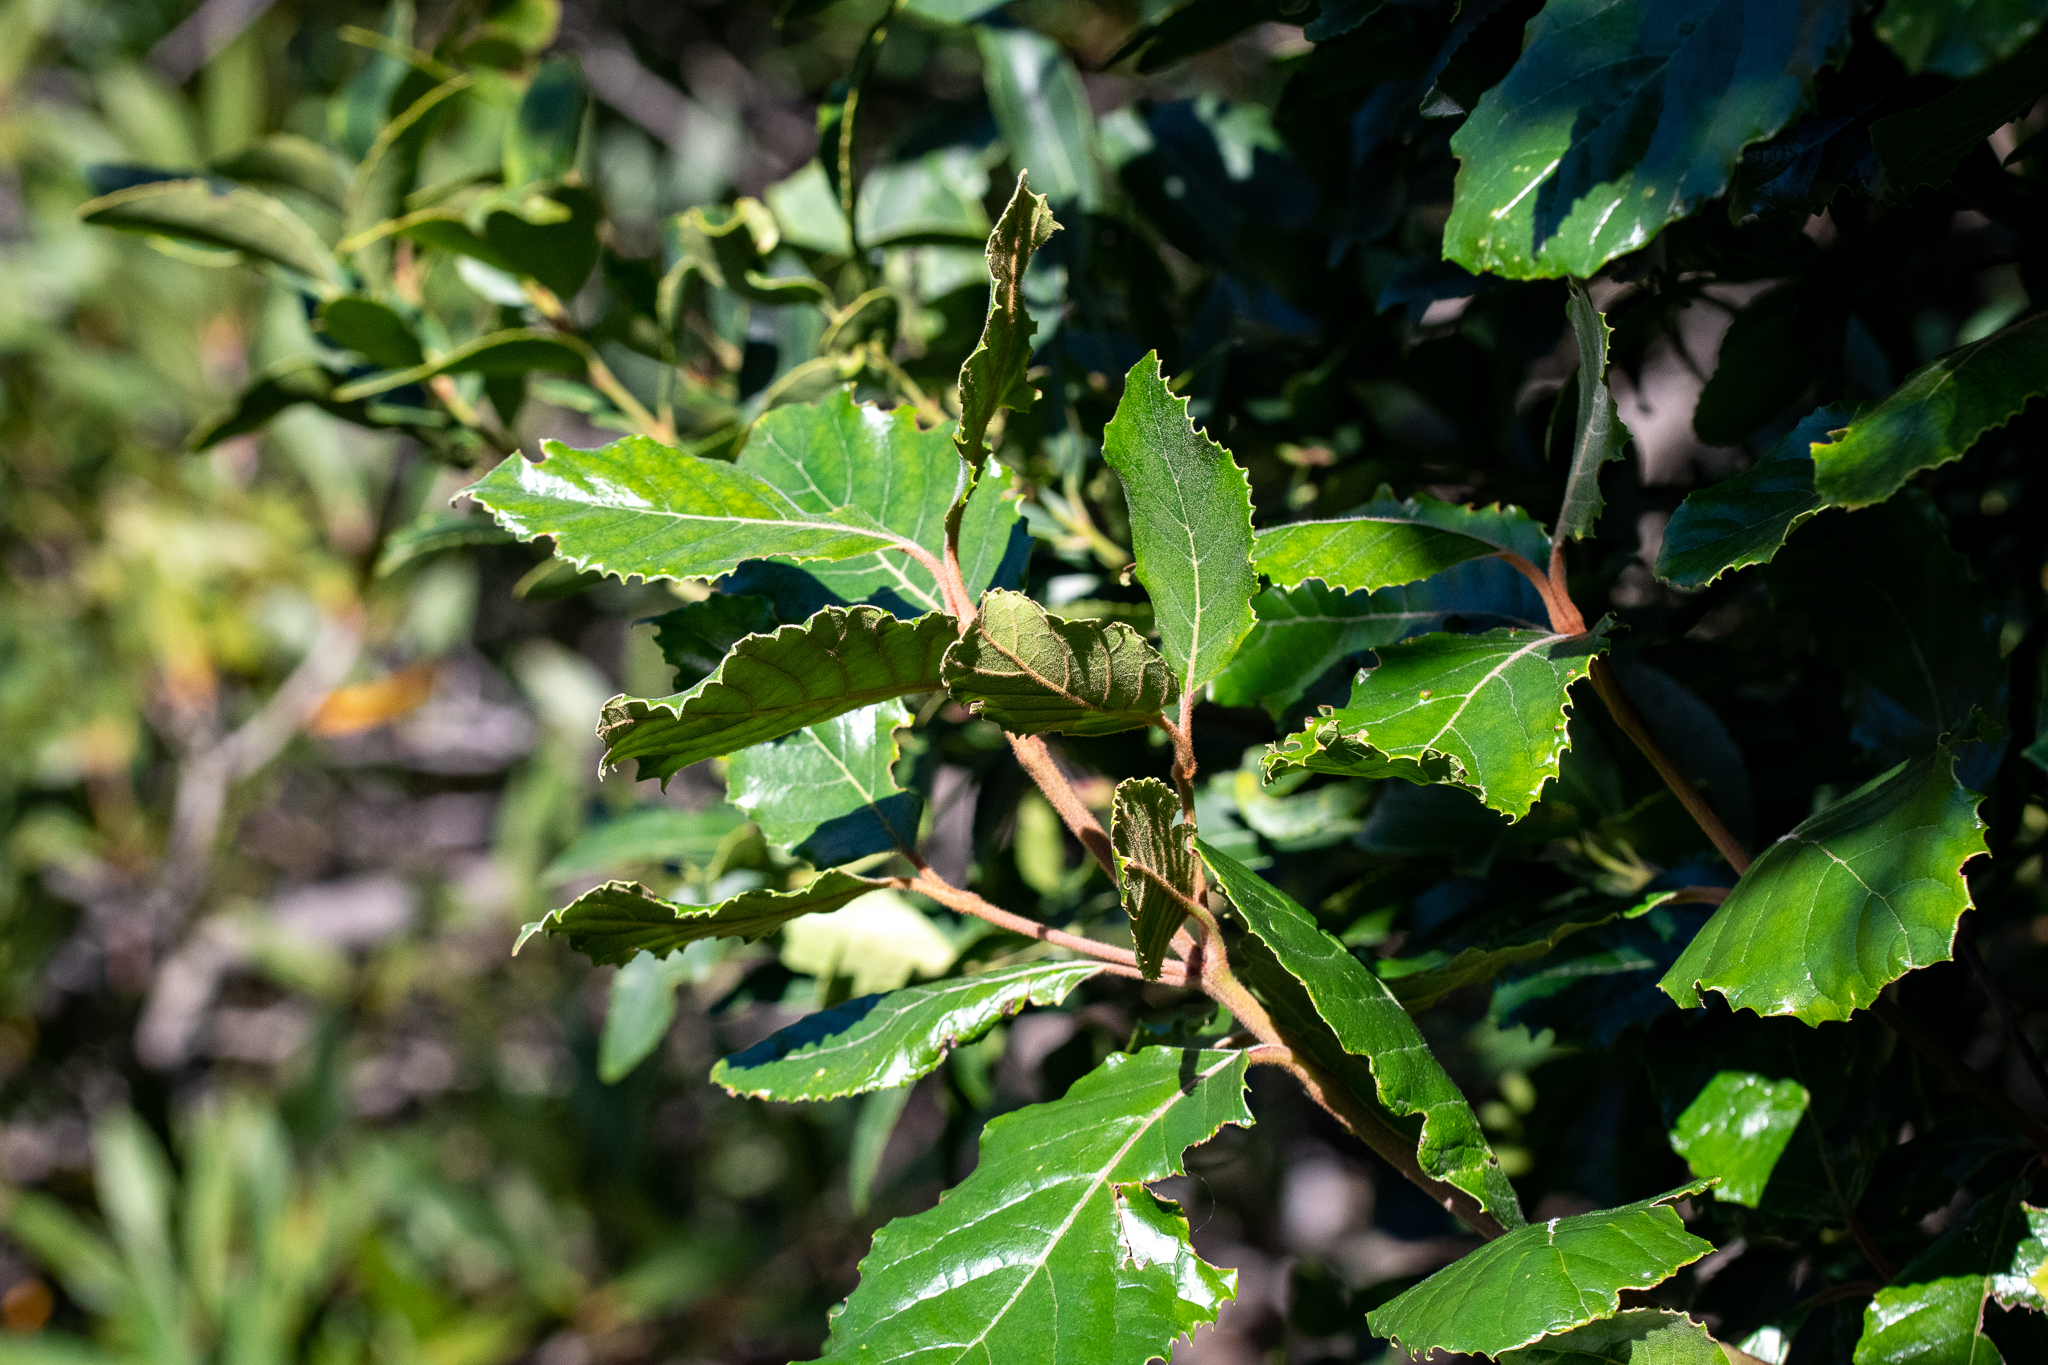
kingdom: Plantae
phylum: Tracheophyta
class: Magnoliopsida
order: Cornales
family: Curtisiaceae
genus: Curtisia
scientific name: Curtisia dentata
